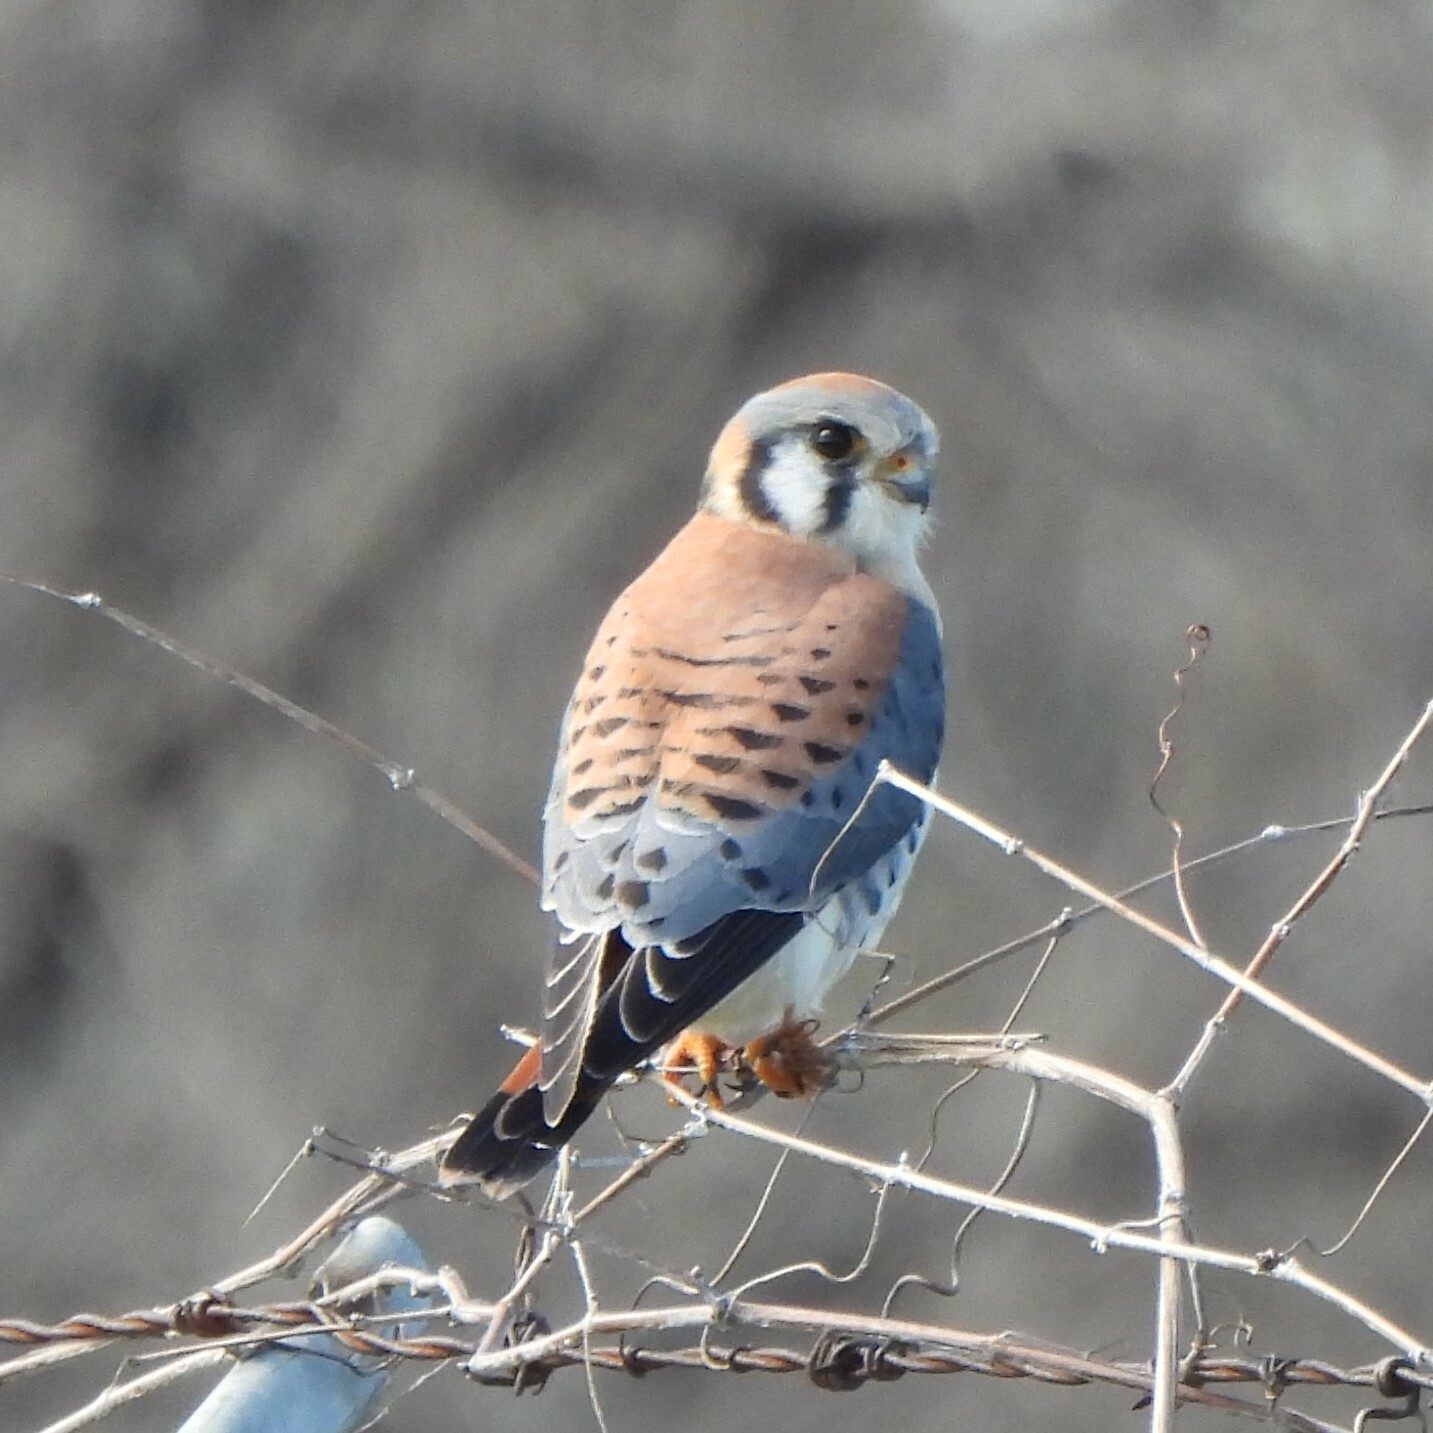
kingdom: Animalia
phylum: Chordata
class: Aves
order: Falconiformes
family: Falconidae
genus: Falco
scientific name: Falco sparverius
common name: American kestrel
